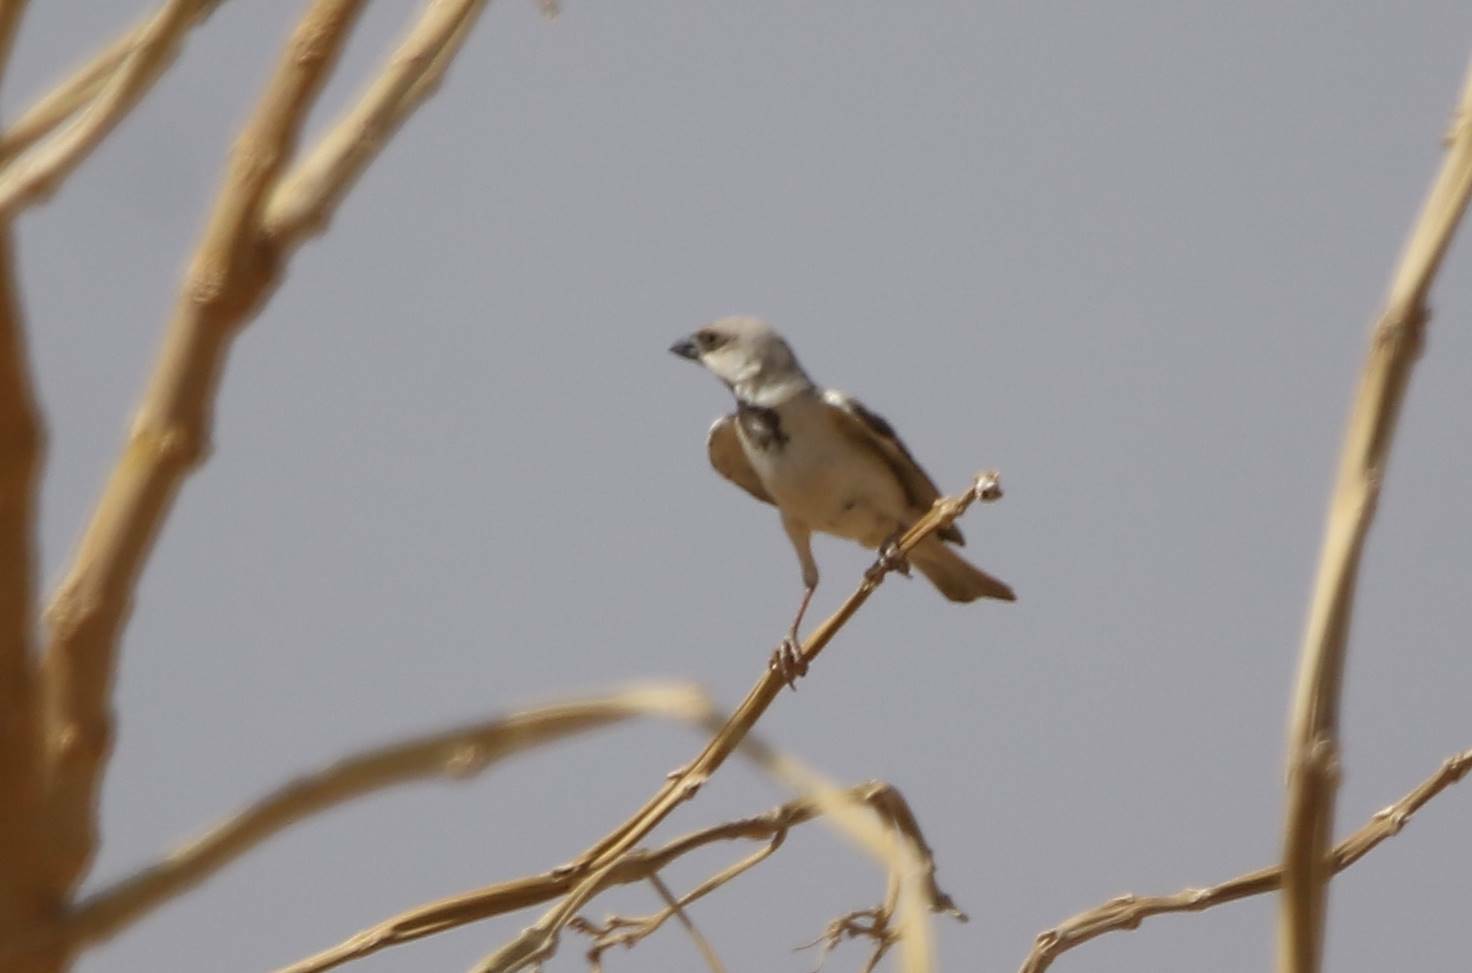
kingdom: Animalia
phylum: Chordata
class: Aves
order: Passeriformes
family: Passeridae
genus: Passer
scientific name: Passer simplex
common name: Desert sparrow
